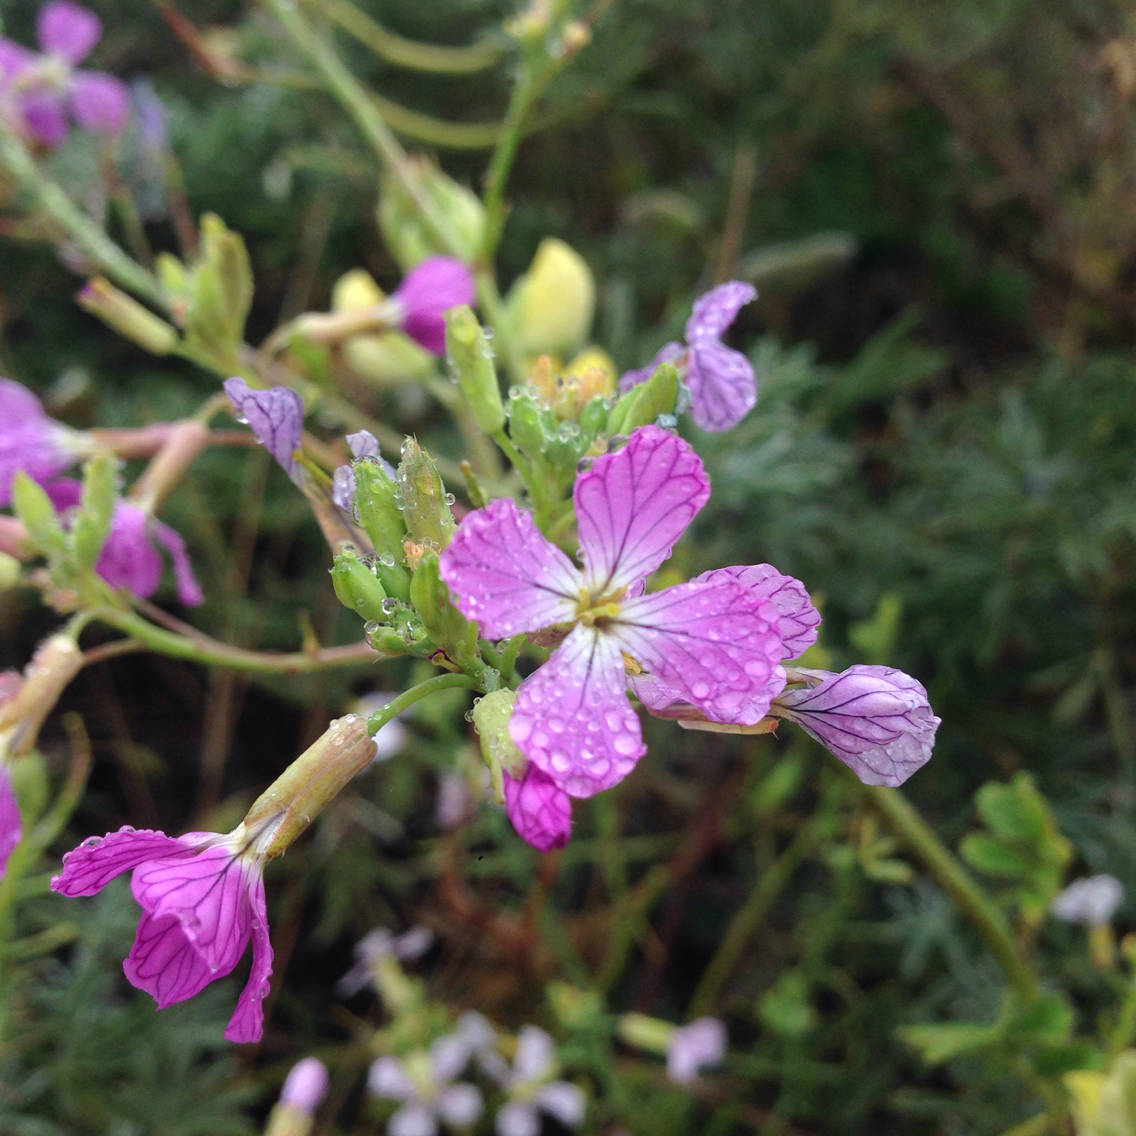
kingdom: Plantae
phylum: Tracheophyta
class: Magnoliopsida
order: Brassicales
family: Brassicaceae
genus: Raphanus
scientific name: Raphanus sativus
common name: Cultivated radish
